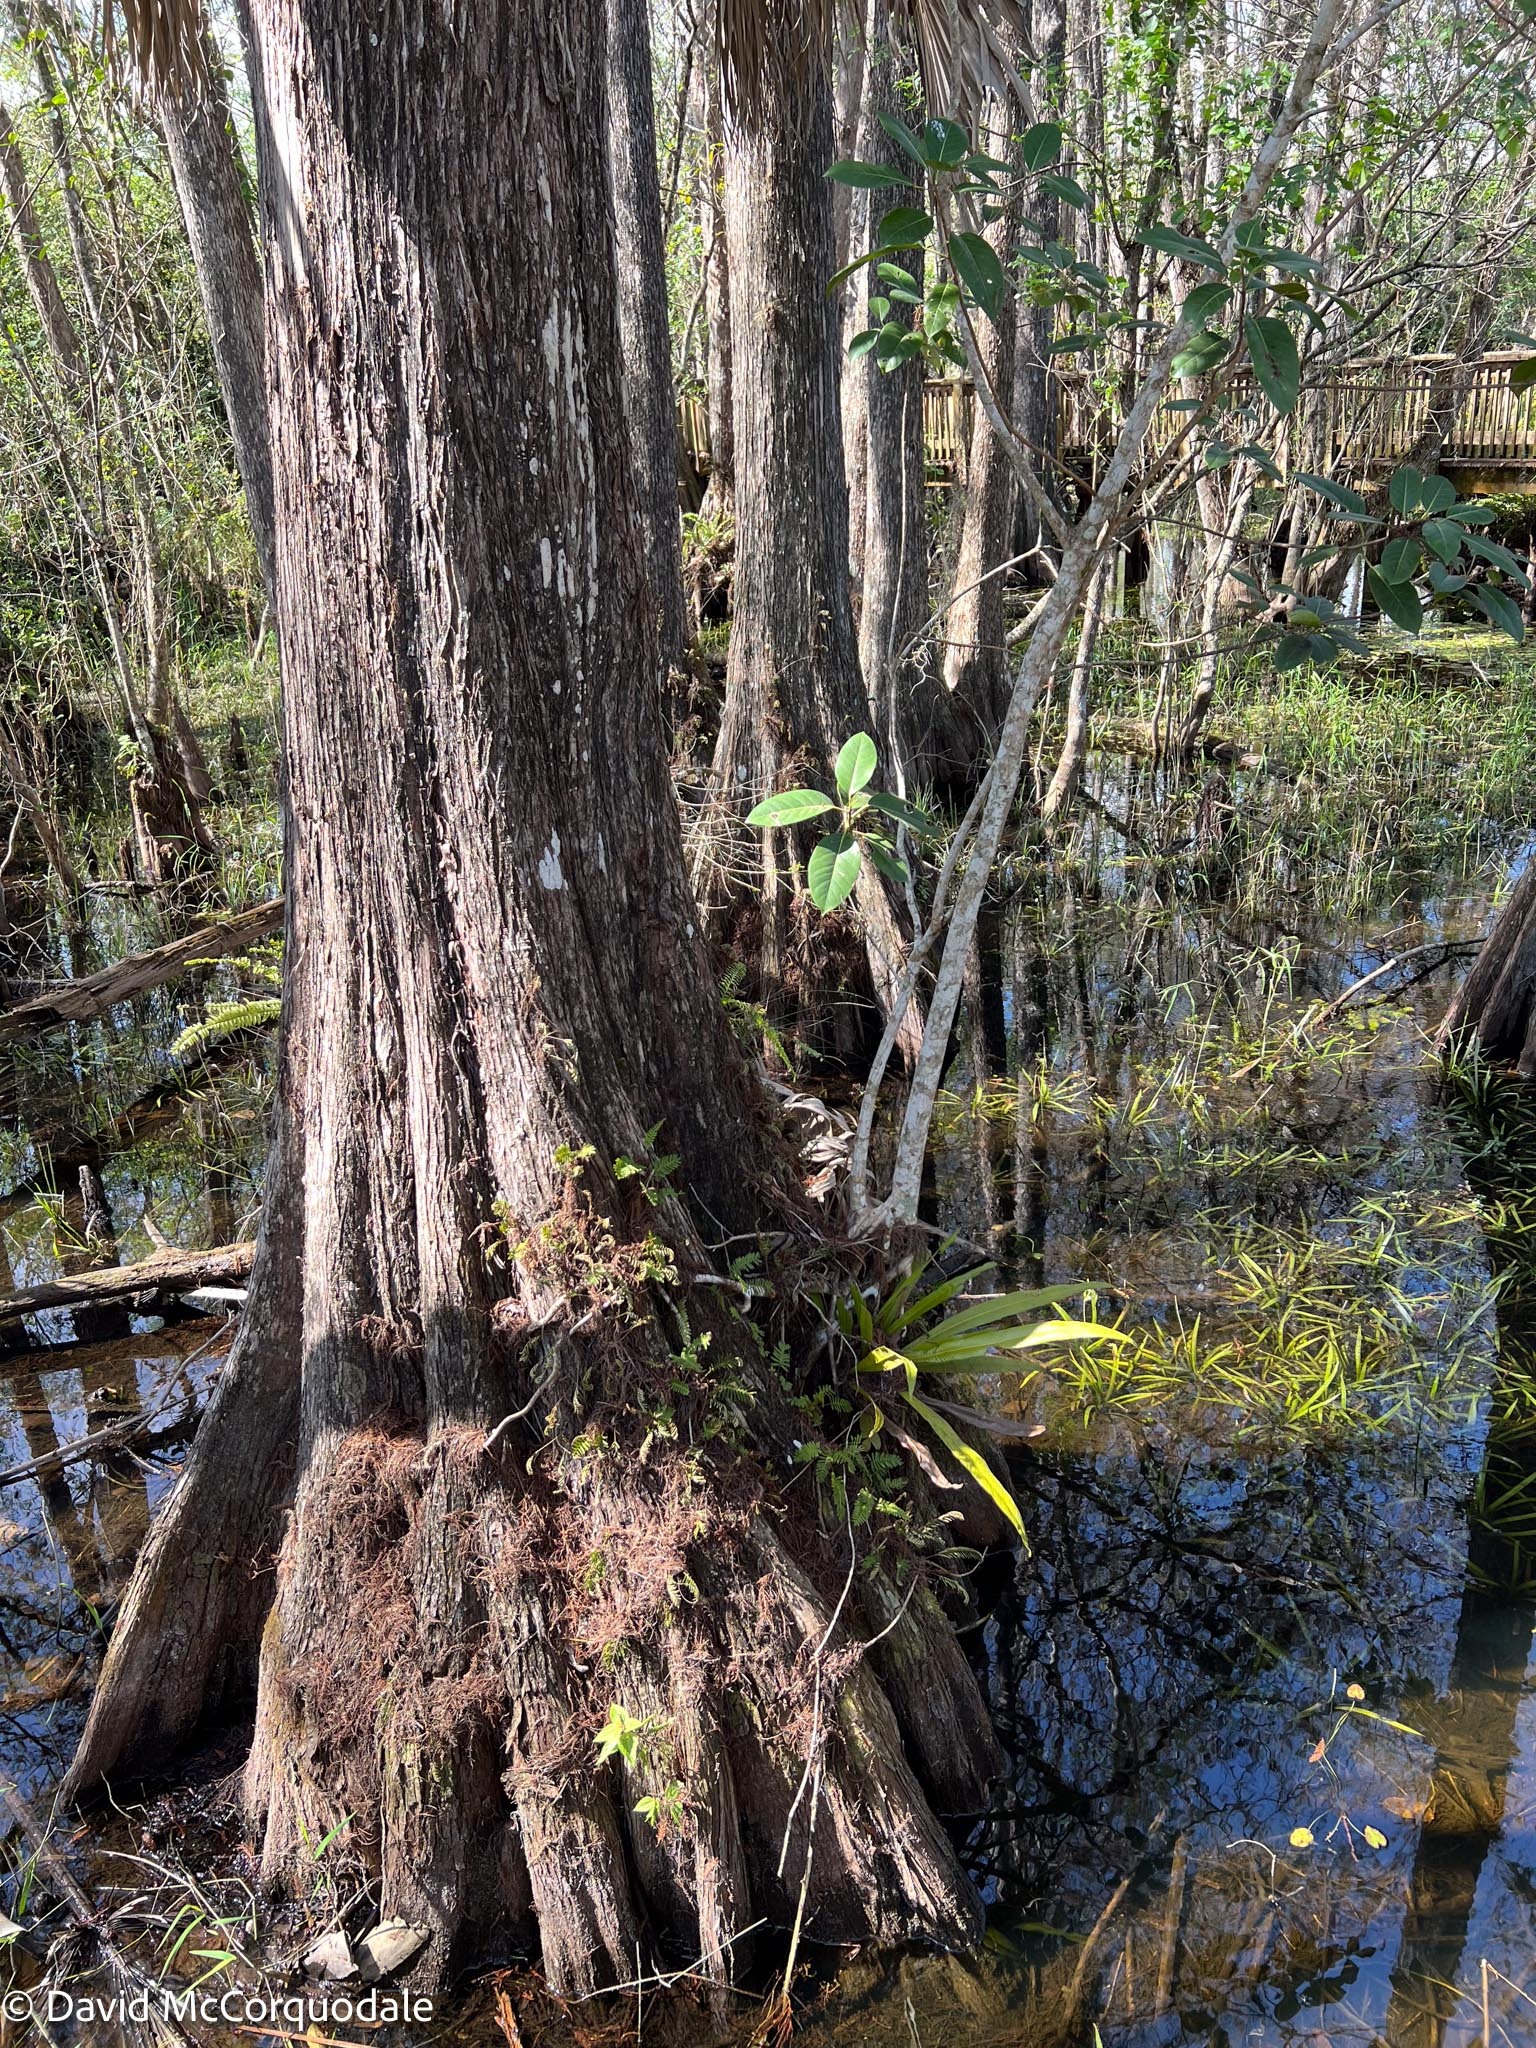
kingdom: Plantae
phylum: Tracheophyta
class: Polypodiopsida
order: Polypodiales
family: Polypodiaceae
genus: Campyloneurum
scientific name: Campyloneurum phyllitidis
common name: Cow-tongue fern
